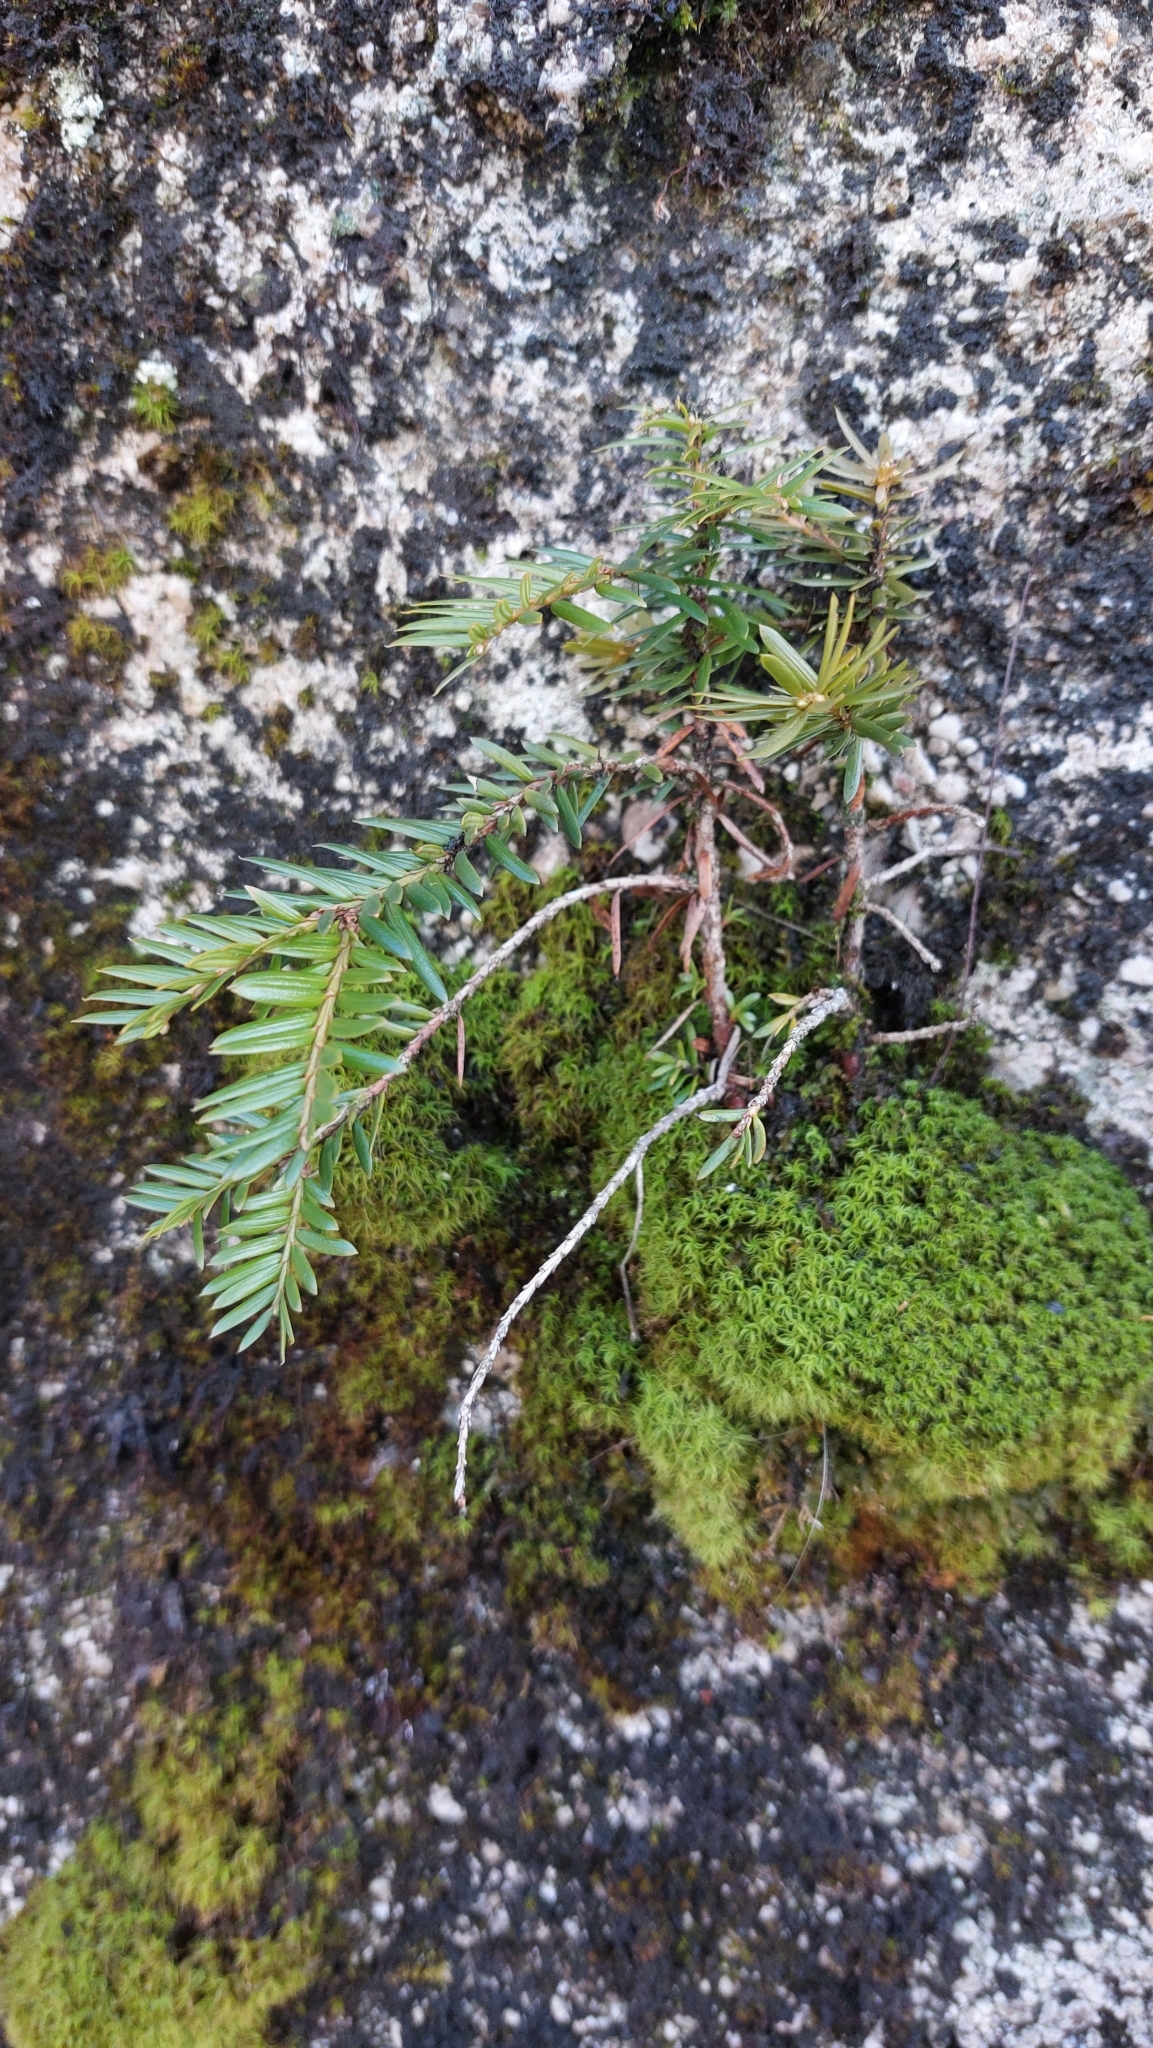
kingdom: Plantae
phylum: Tracheophyta
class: Pinopsida
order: Pinales
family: Pinaceae
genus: Abies
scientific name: Abies alba
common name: Silver fir
